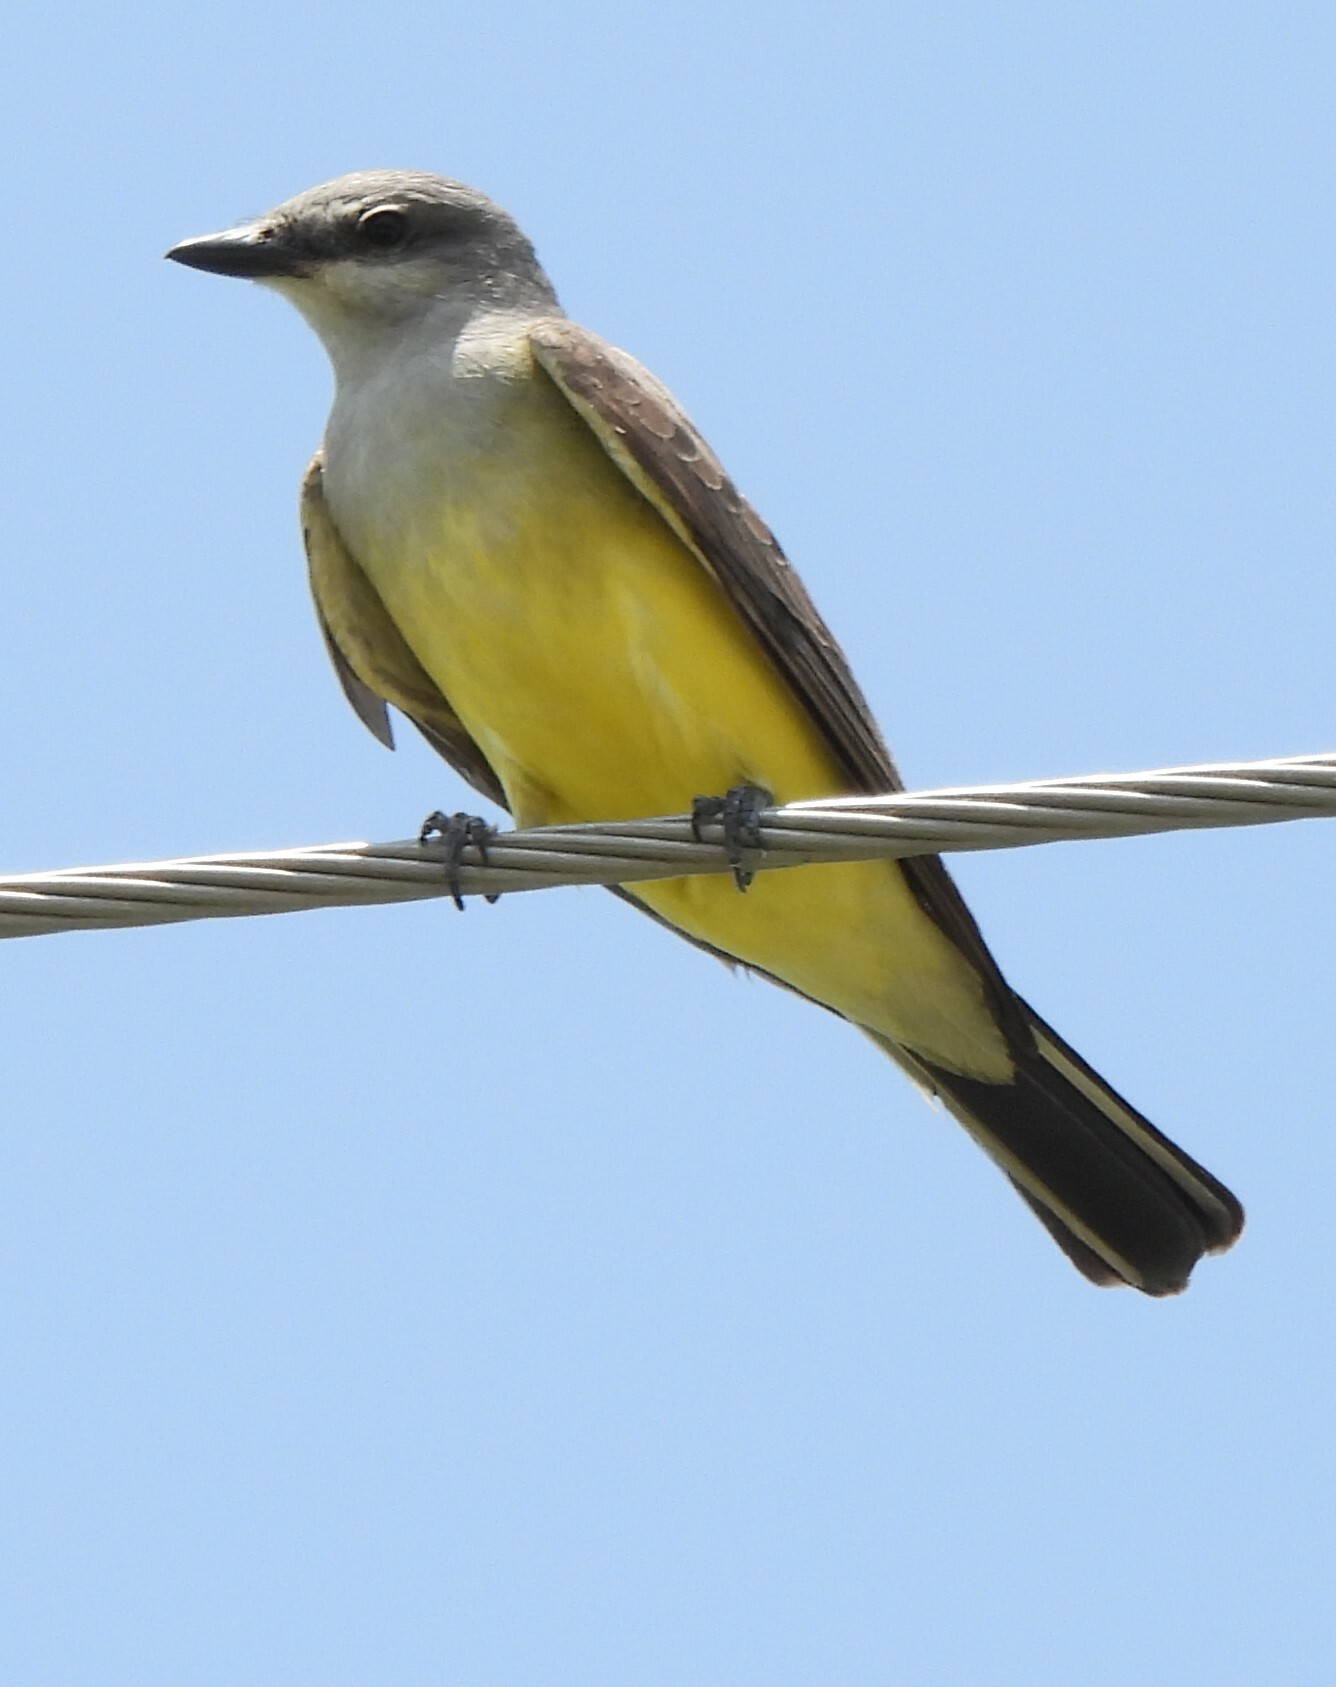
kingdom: Animalia
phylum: Chordata
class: Aves
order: Passeriformes
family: Tyrannidae
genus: Tyrannus
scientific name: Tyrannus verticalis
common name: Western kingbird
